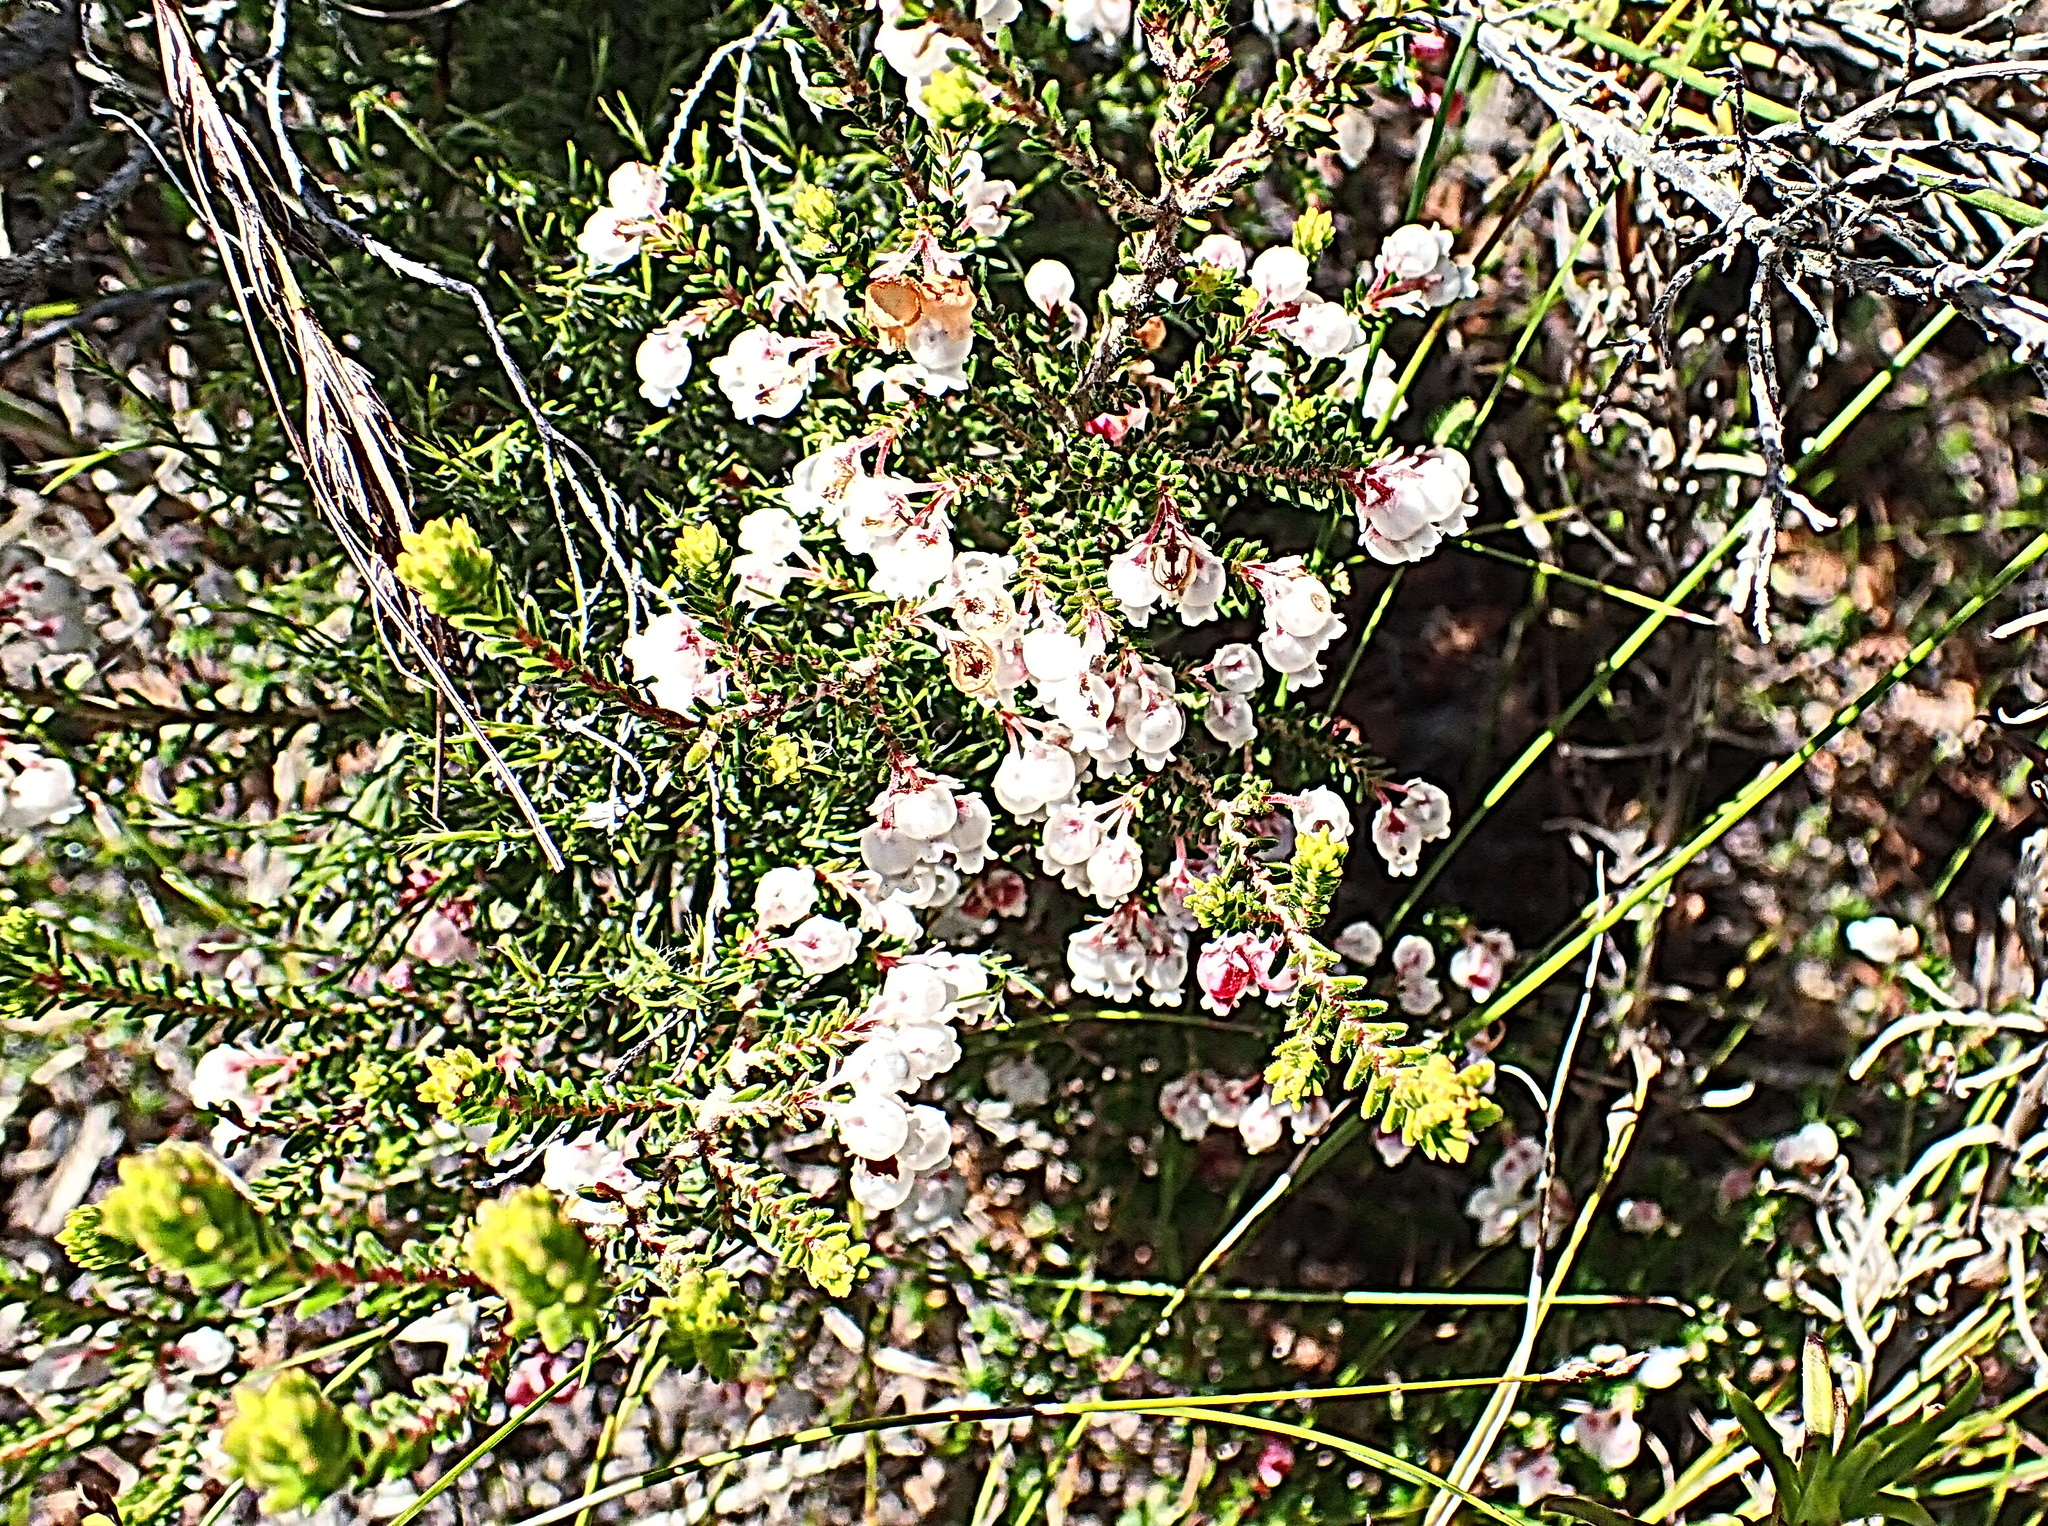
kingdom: Plantae
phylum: Tracheophyta
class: Magnoliopsida
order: Ericales
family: Ericaceae
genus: Erica
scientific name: Erica glomiflora
